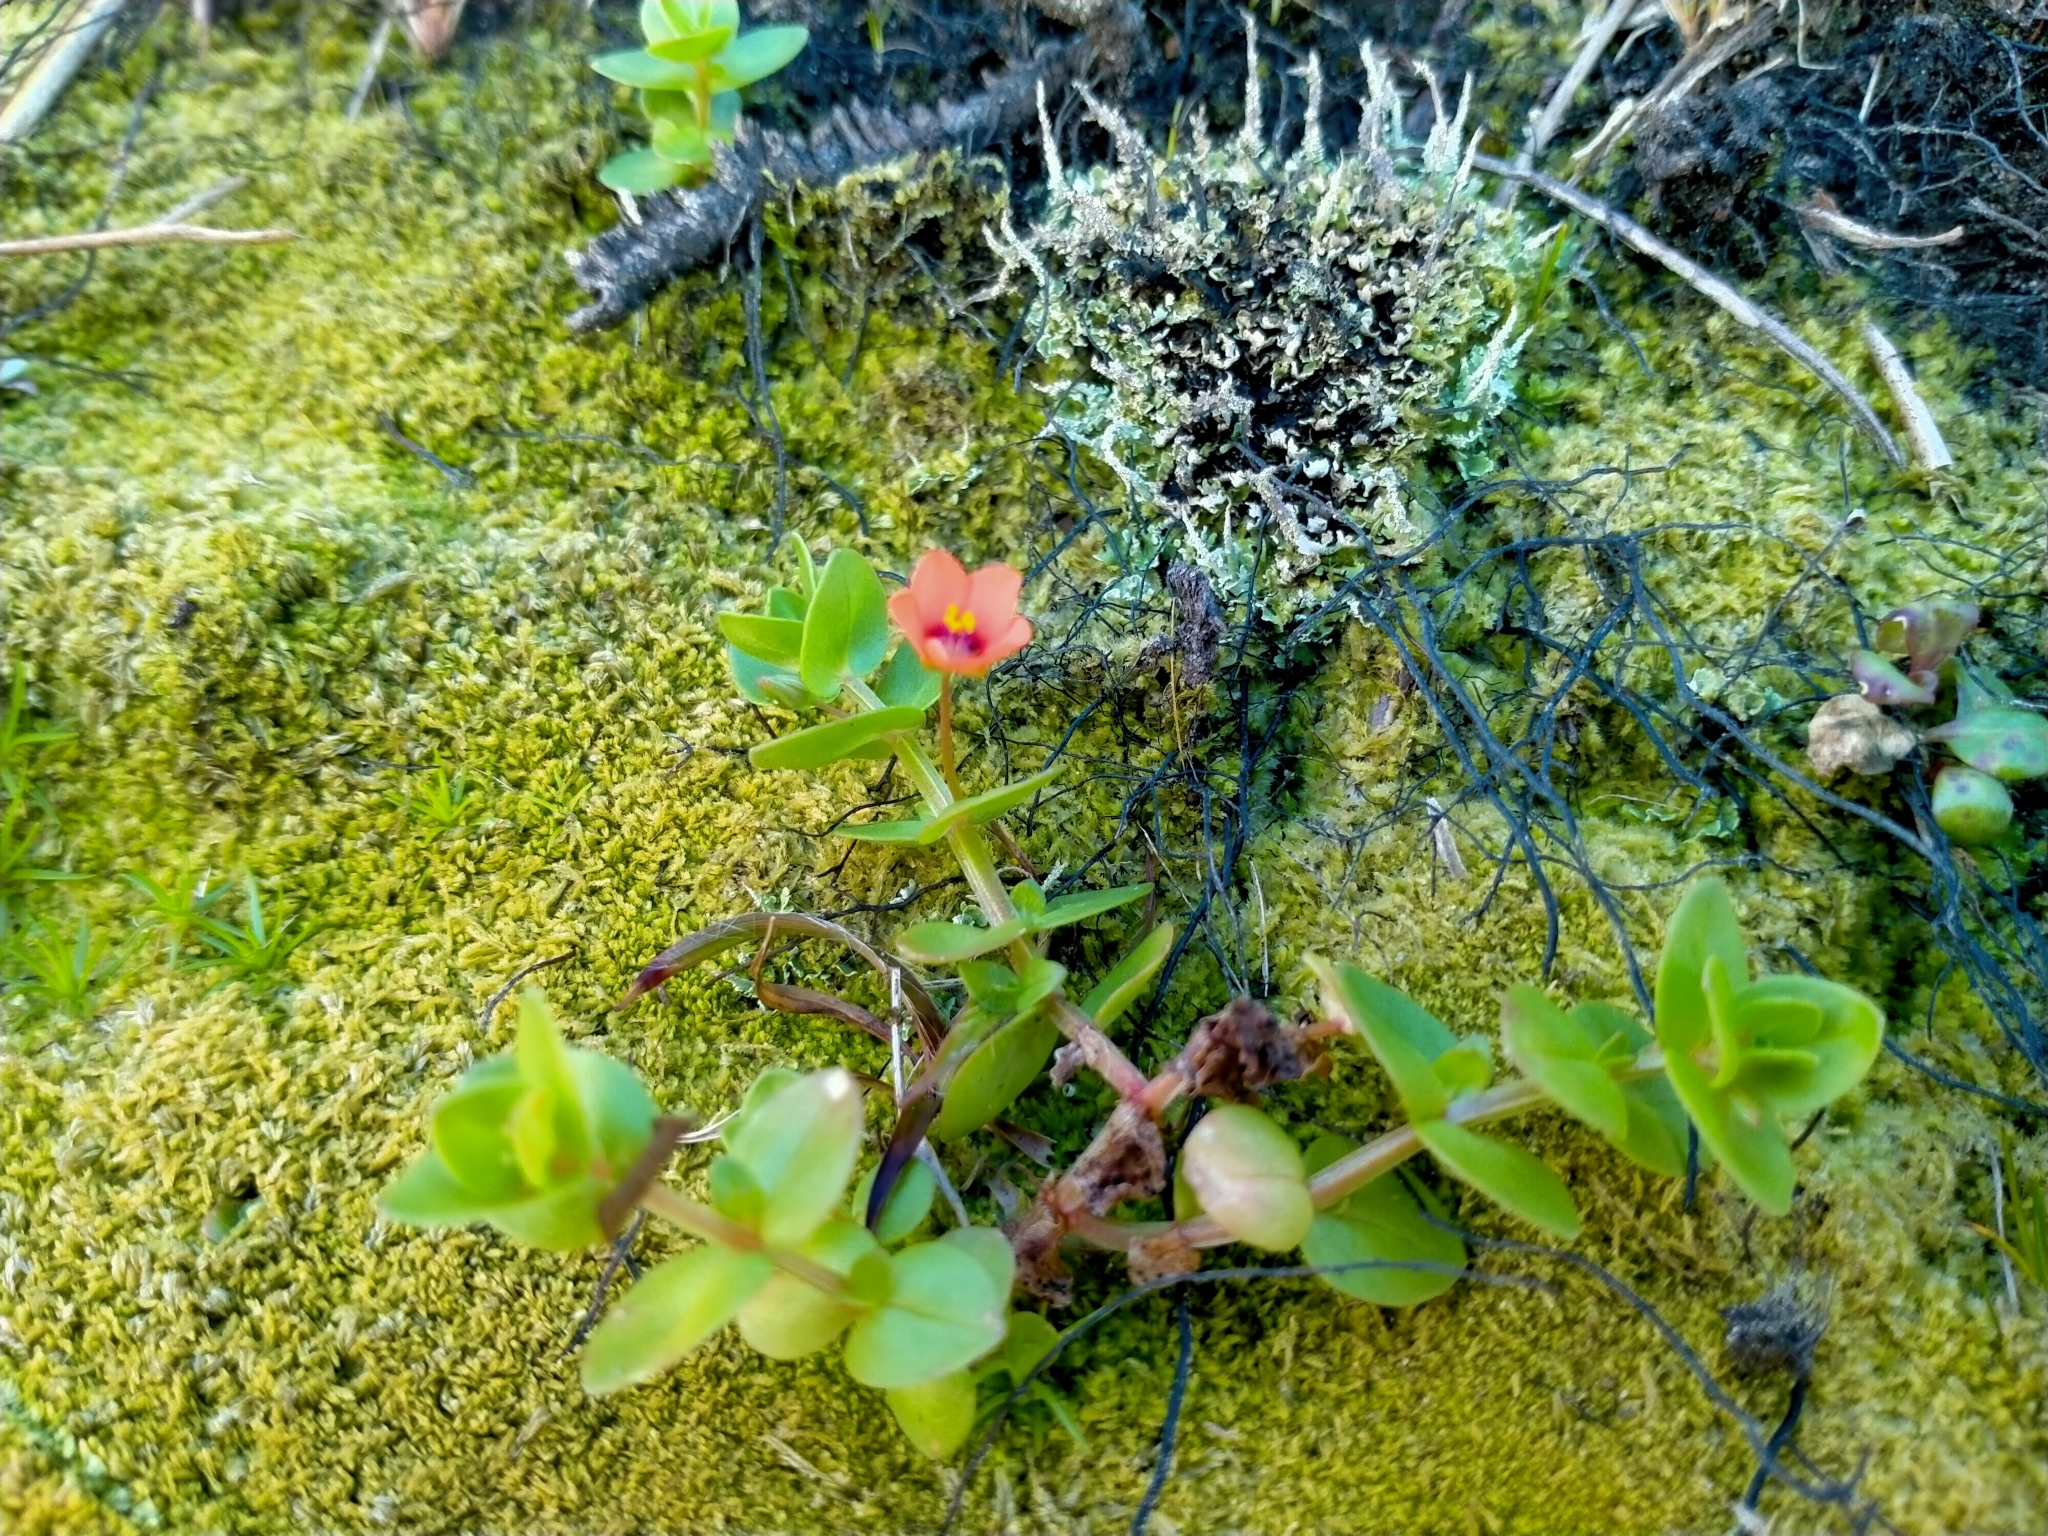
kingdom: Plantae
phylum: Tracheophyta
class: Magnoliopsida
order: Ericales
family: Primulaceae
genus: Lysimachia
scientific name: Lysimachia arvensis
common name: Scarlet pimpernel
